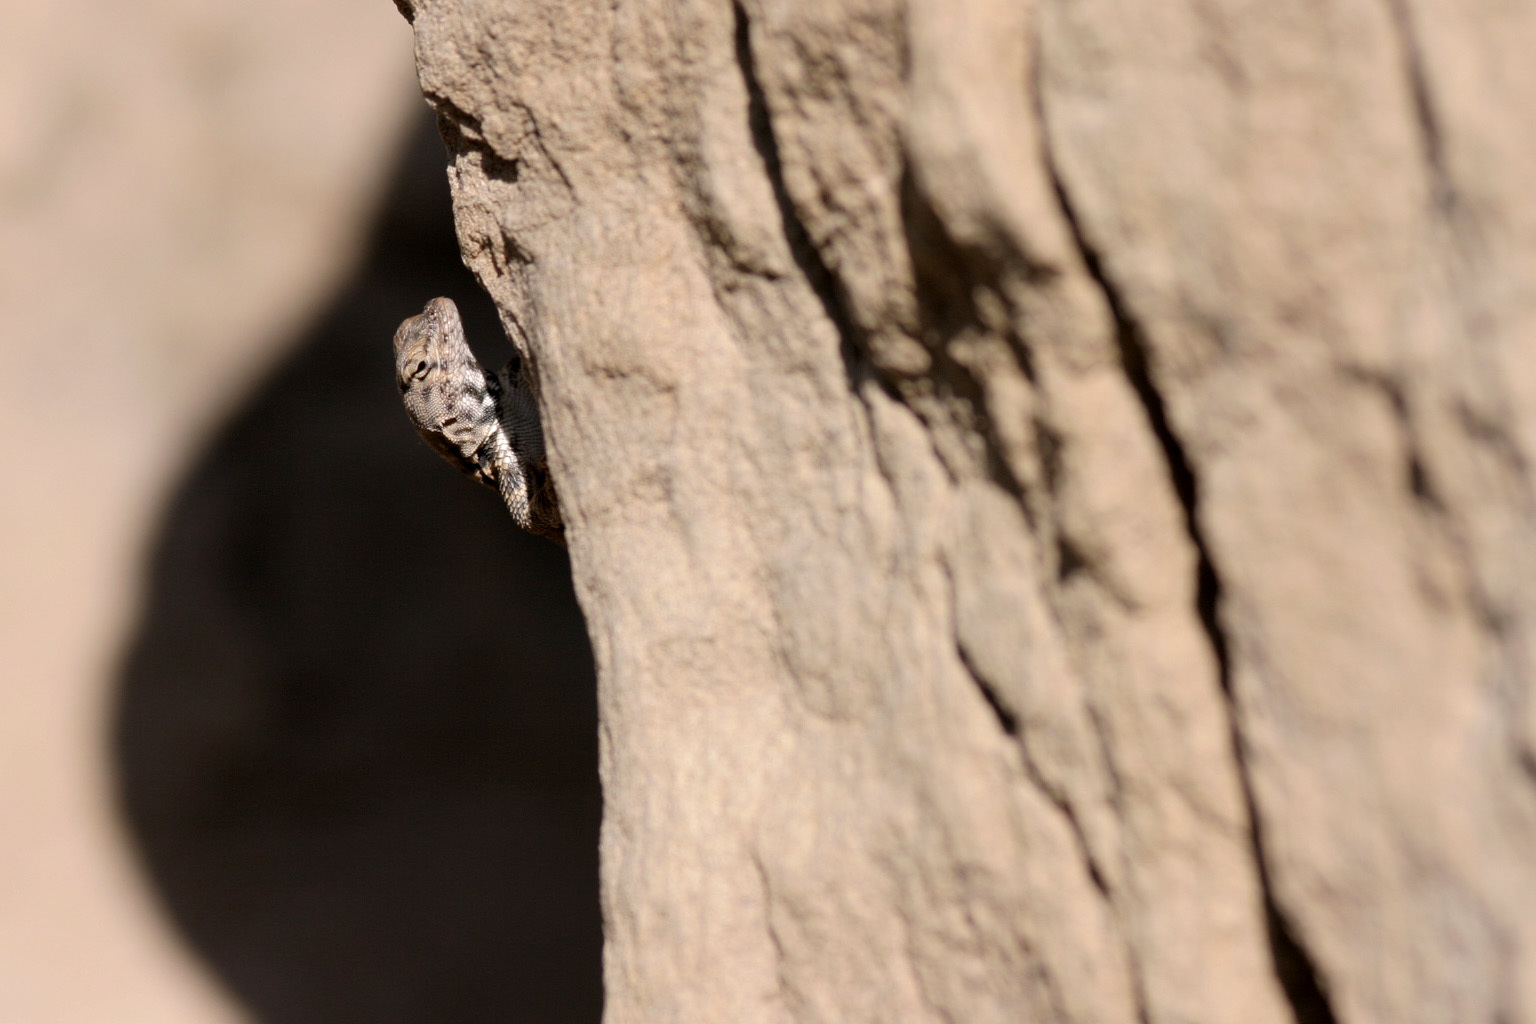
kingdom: Animalia
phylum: Chordata
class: Squamata
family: Phrynosomatidae
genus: Sceloporus
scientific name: Sceloporus merriami
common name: Canyon lizard
